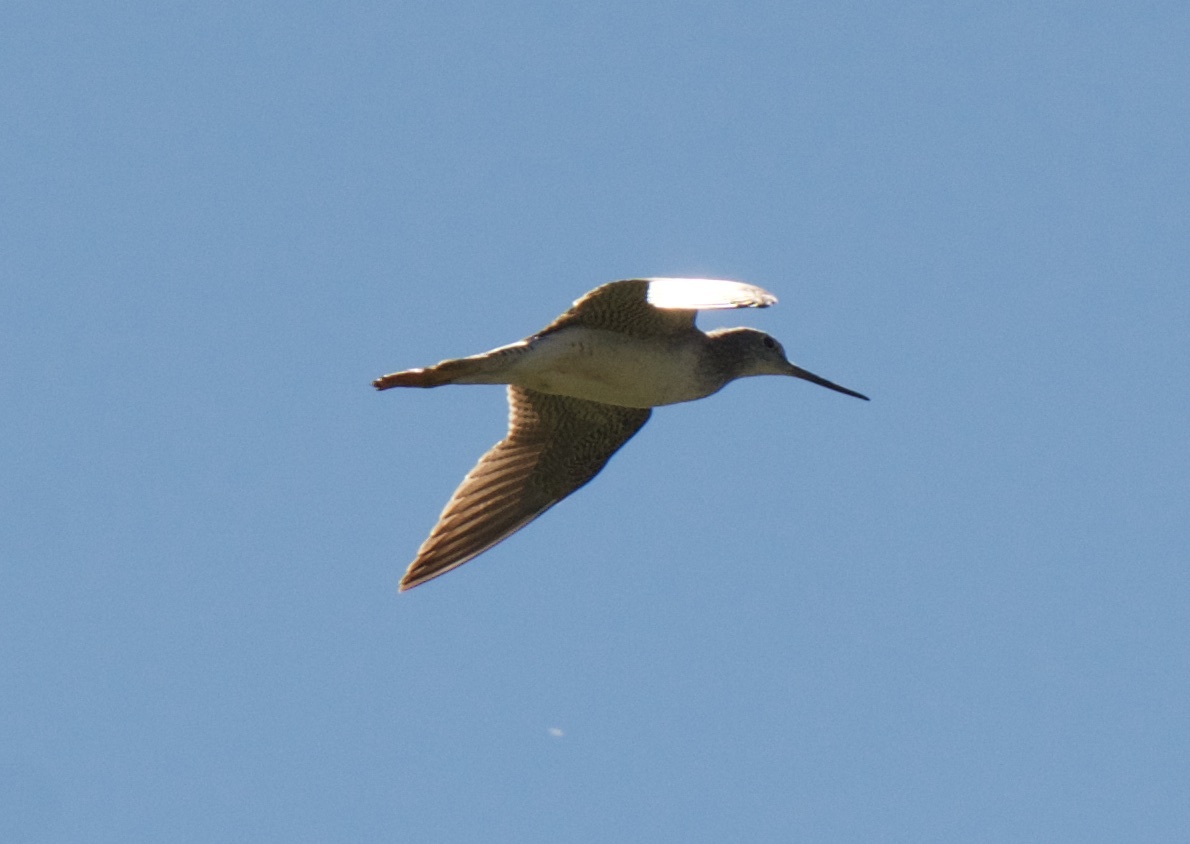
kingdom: Animalia
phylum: Chordata
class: Aves
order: Charadriiformes
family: Scolopacidae
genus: Tringa
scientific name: Tringa melanoleuca
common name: Greater yellowlegs
